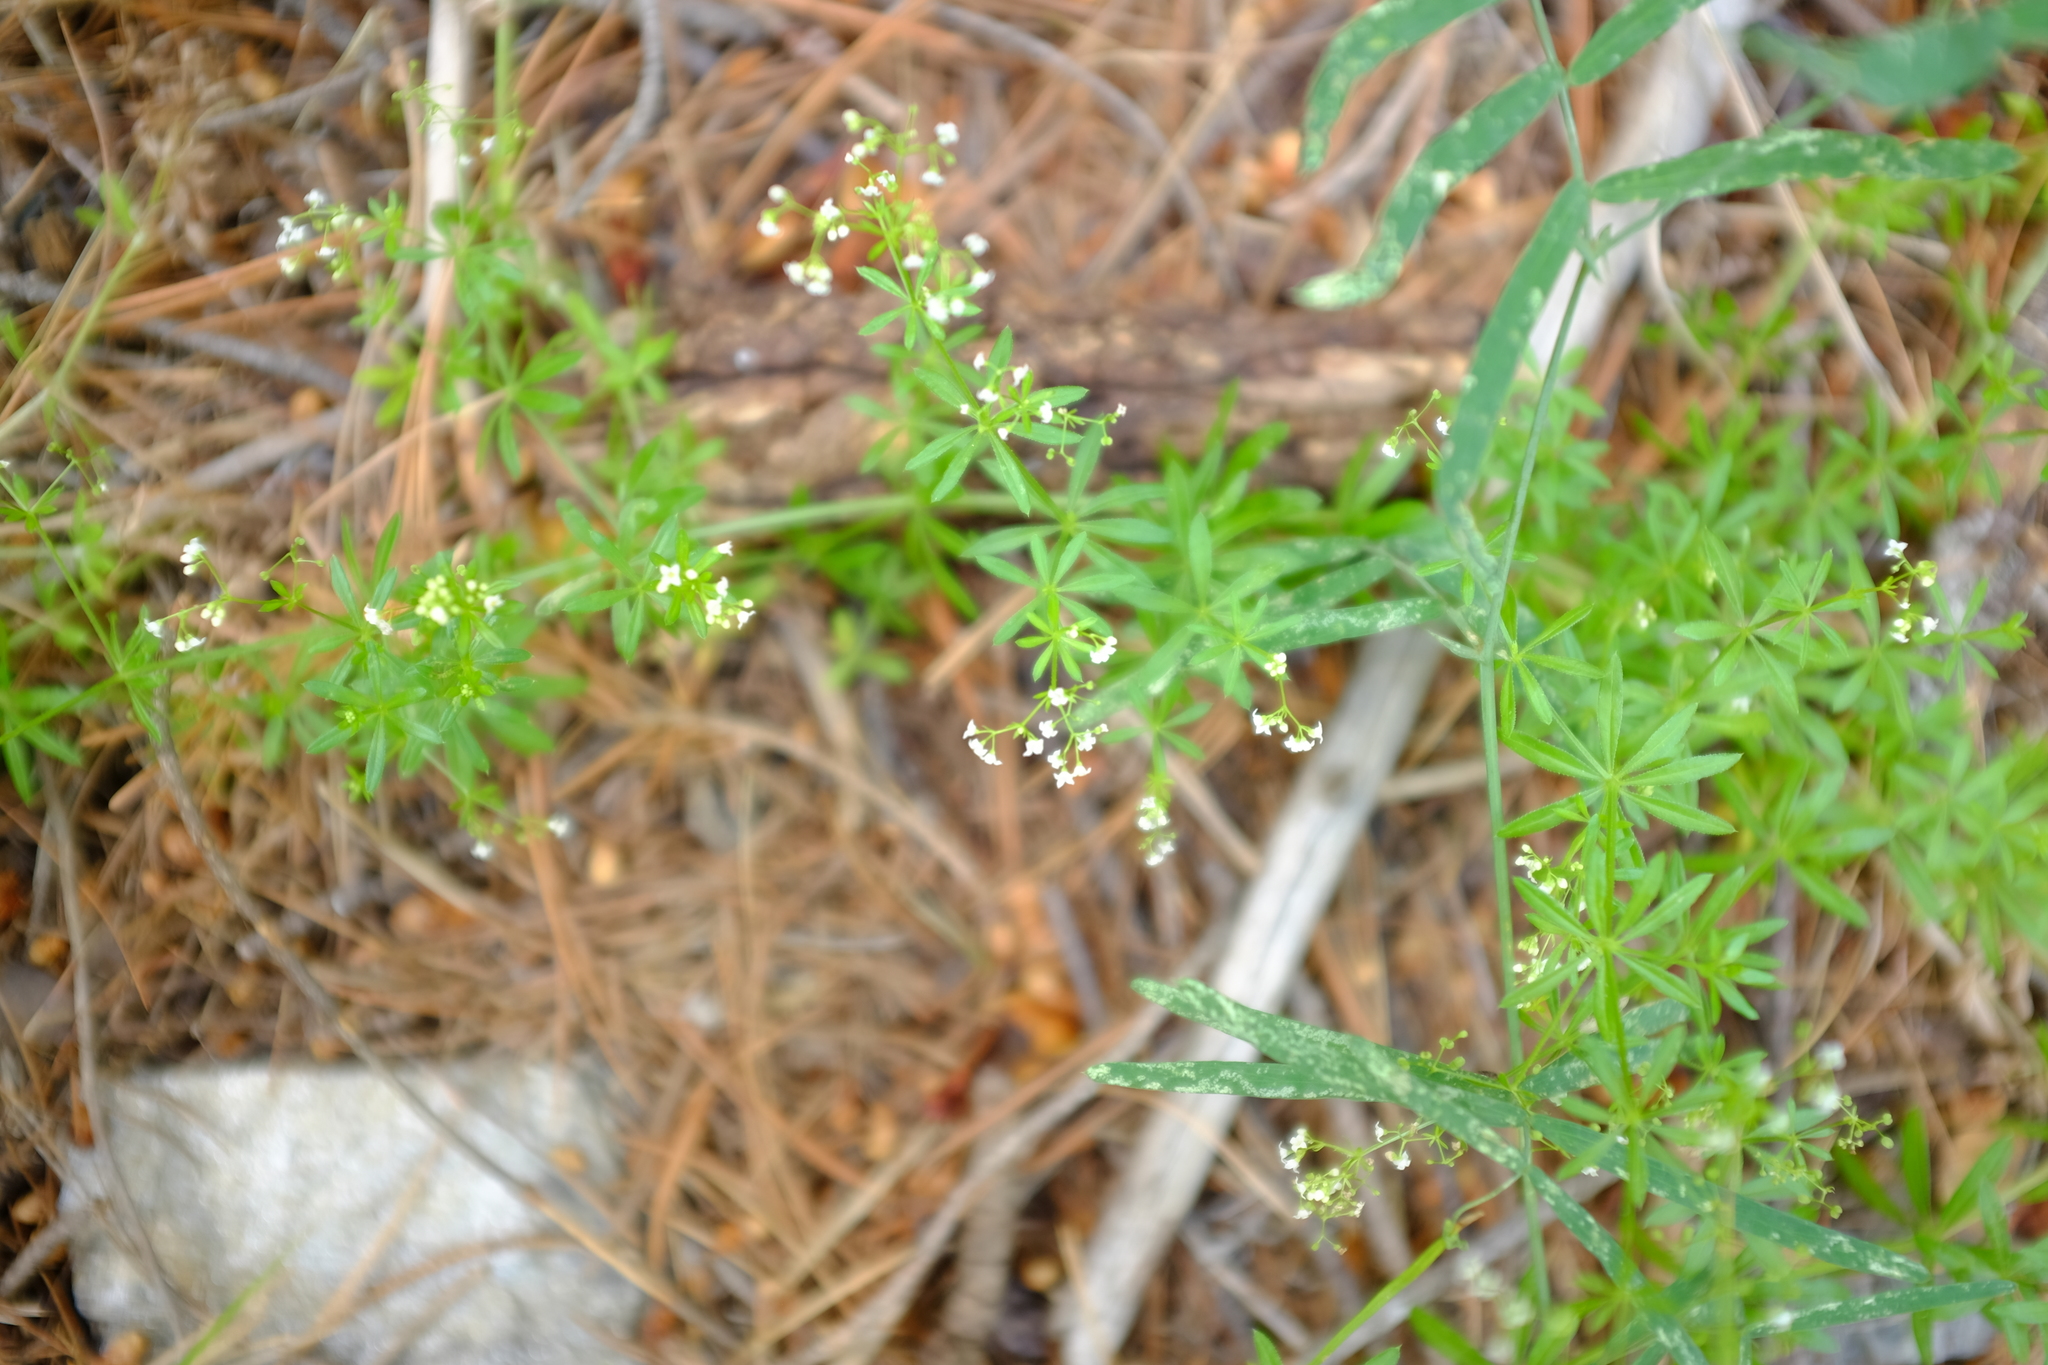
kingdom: Plantae
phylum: Tracheophyta
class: Magnoliopsida
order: Gentianales
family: Rubiaceae
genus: Galium
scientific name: Galium mexicanum
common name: Mexican bedstraw
